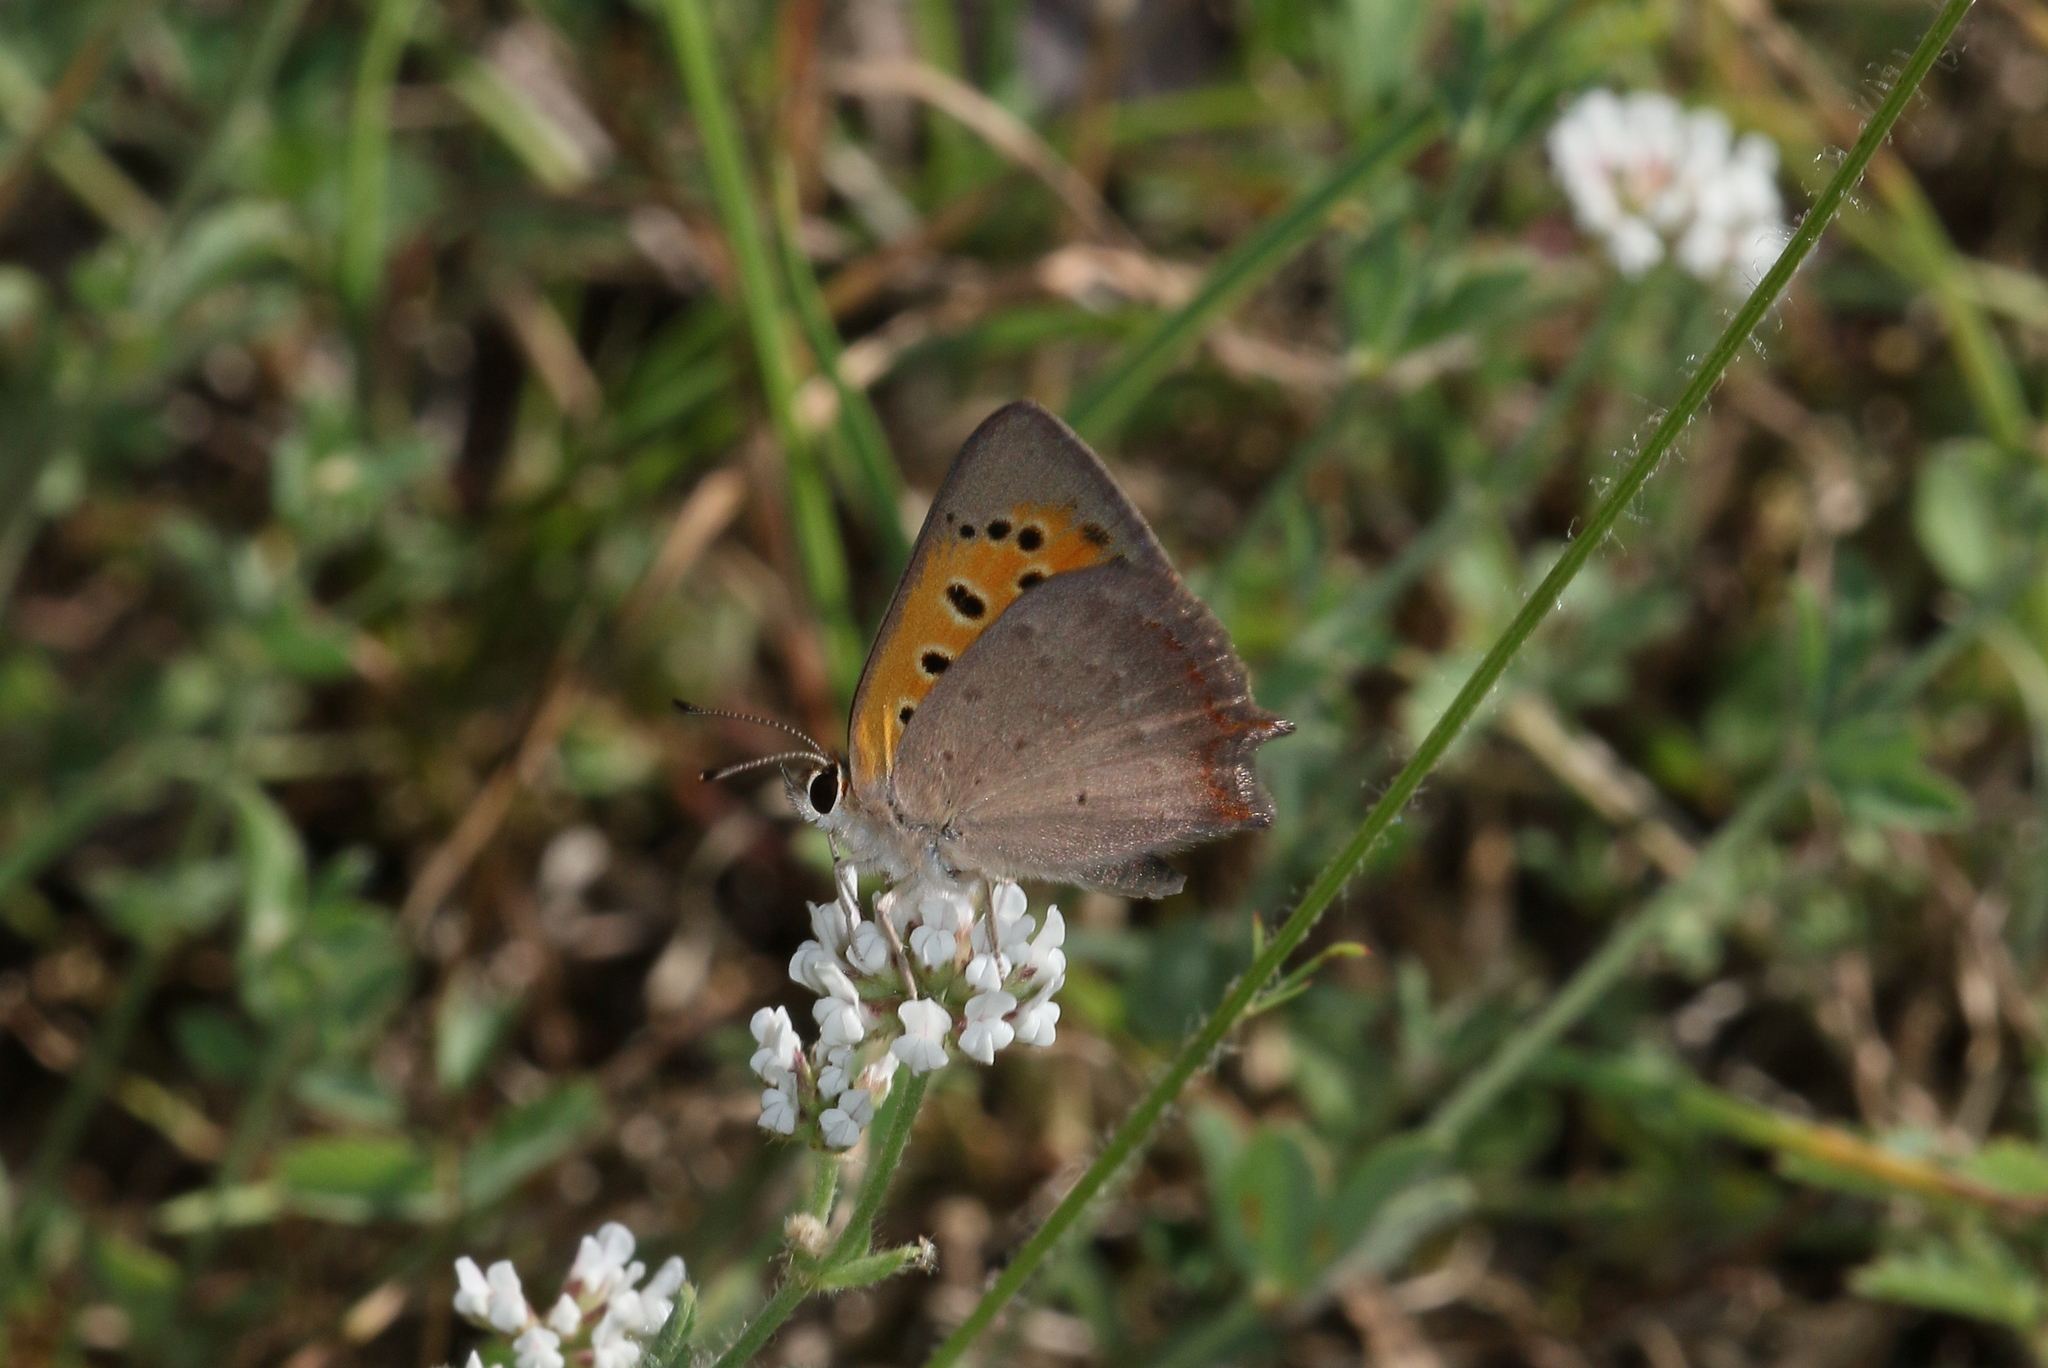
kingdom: Animalia
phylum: Arthropoda
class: Insecta
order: Lepidoptera
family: Lycaenidae
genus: Lycaena
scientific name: Lycaena phlaeas
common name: Small copper
